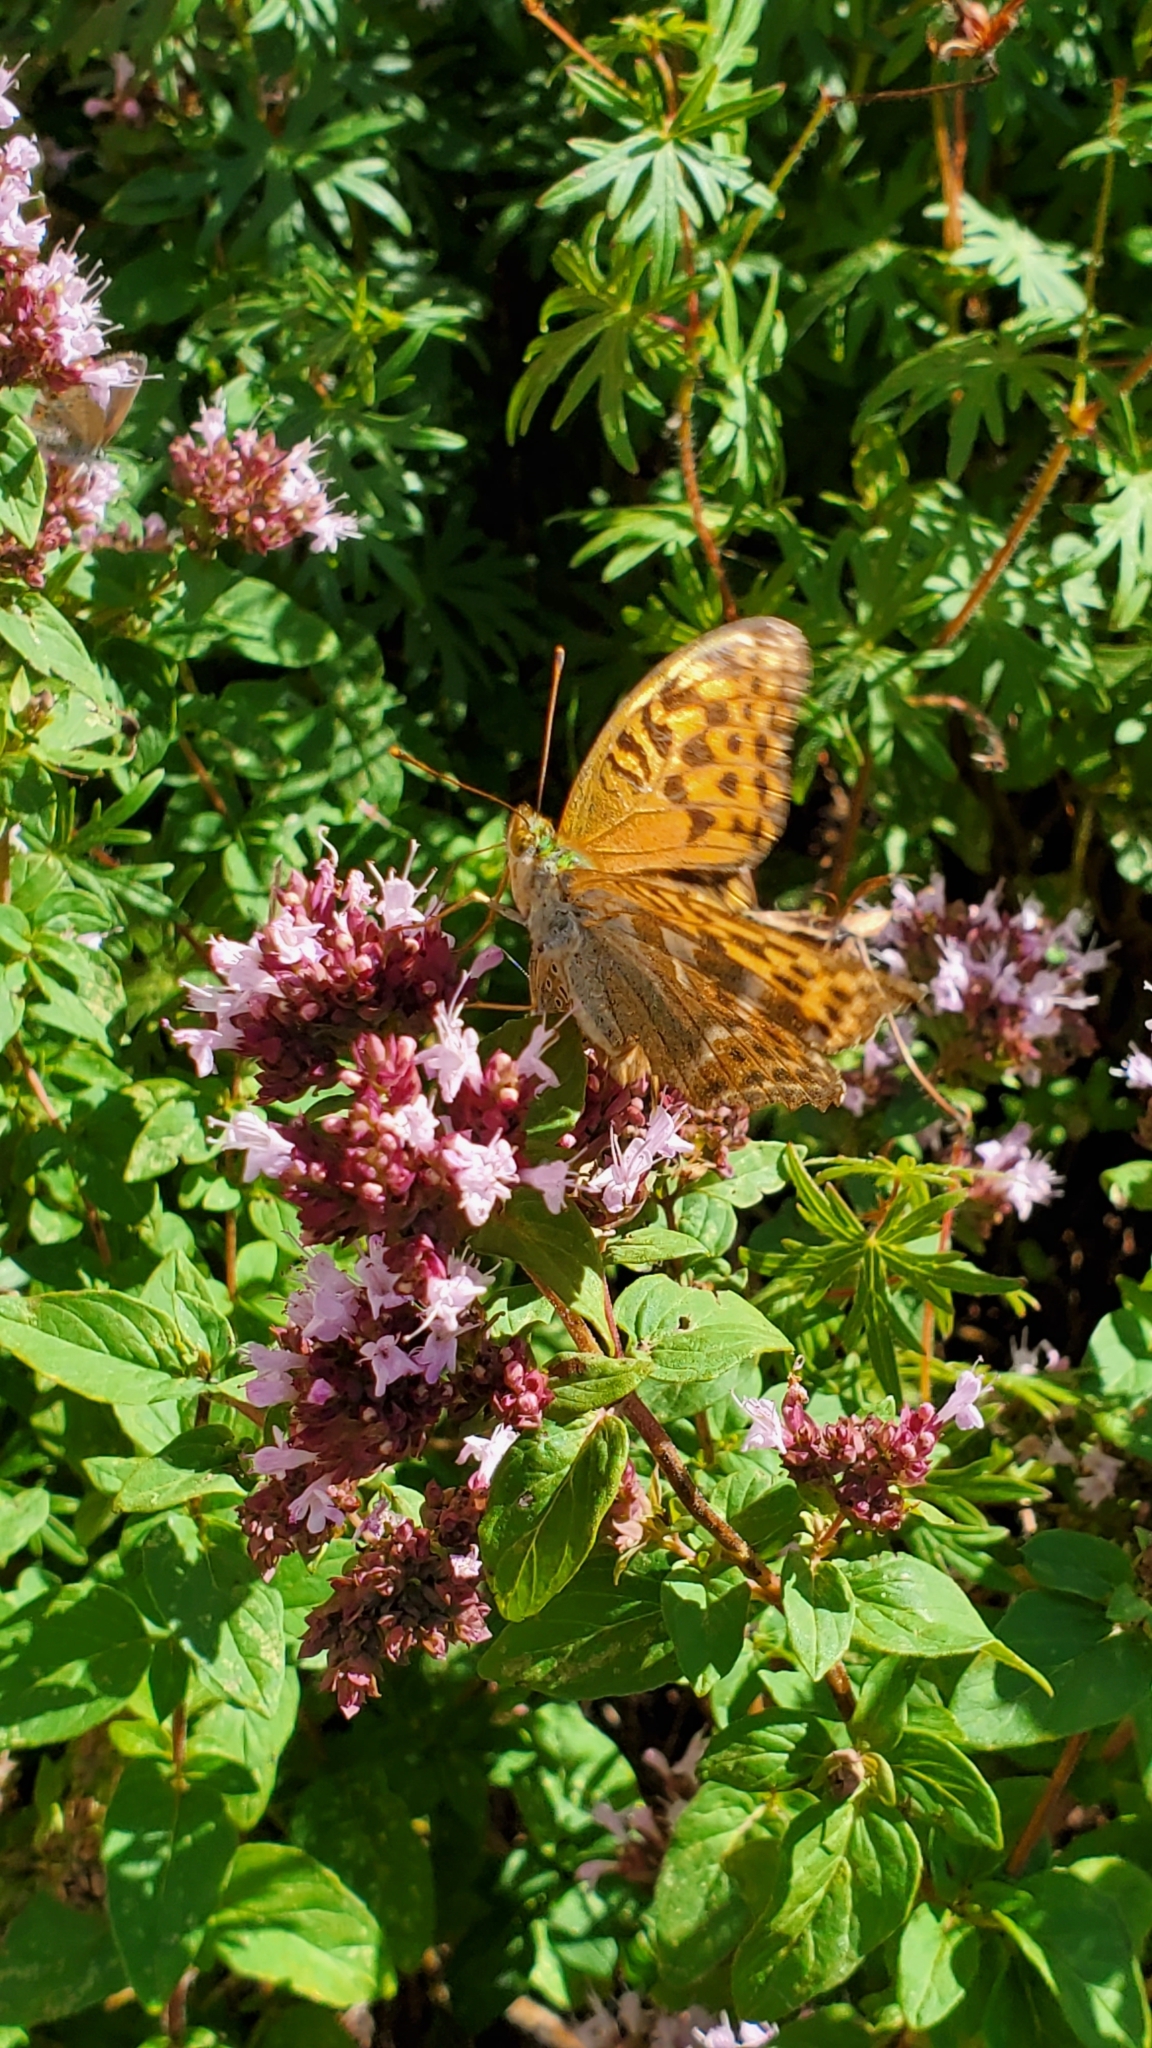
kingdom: Animalia
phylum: Arthropoda
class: Insecta
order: Lepidoptera
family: Nymphalidae
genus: Argynnis
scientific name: Argynnis paphia
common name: Silver-washed fritillary
